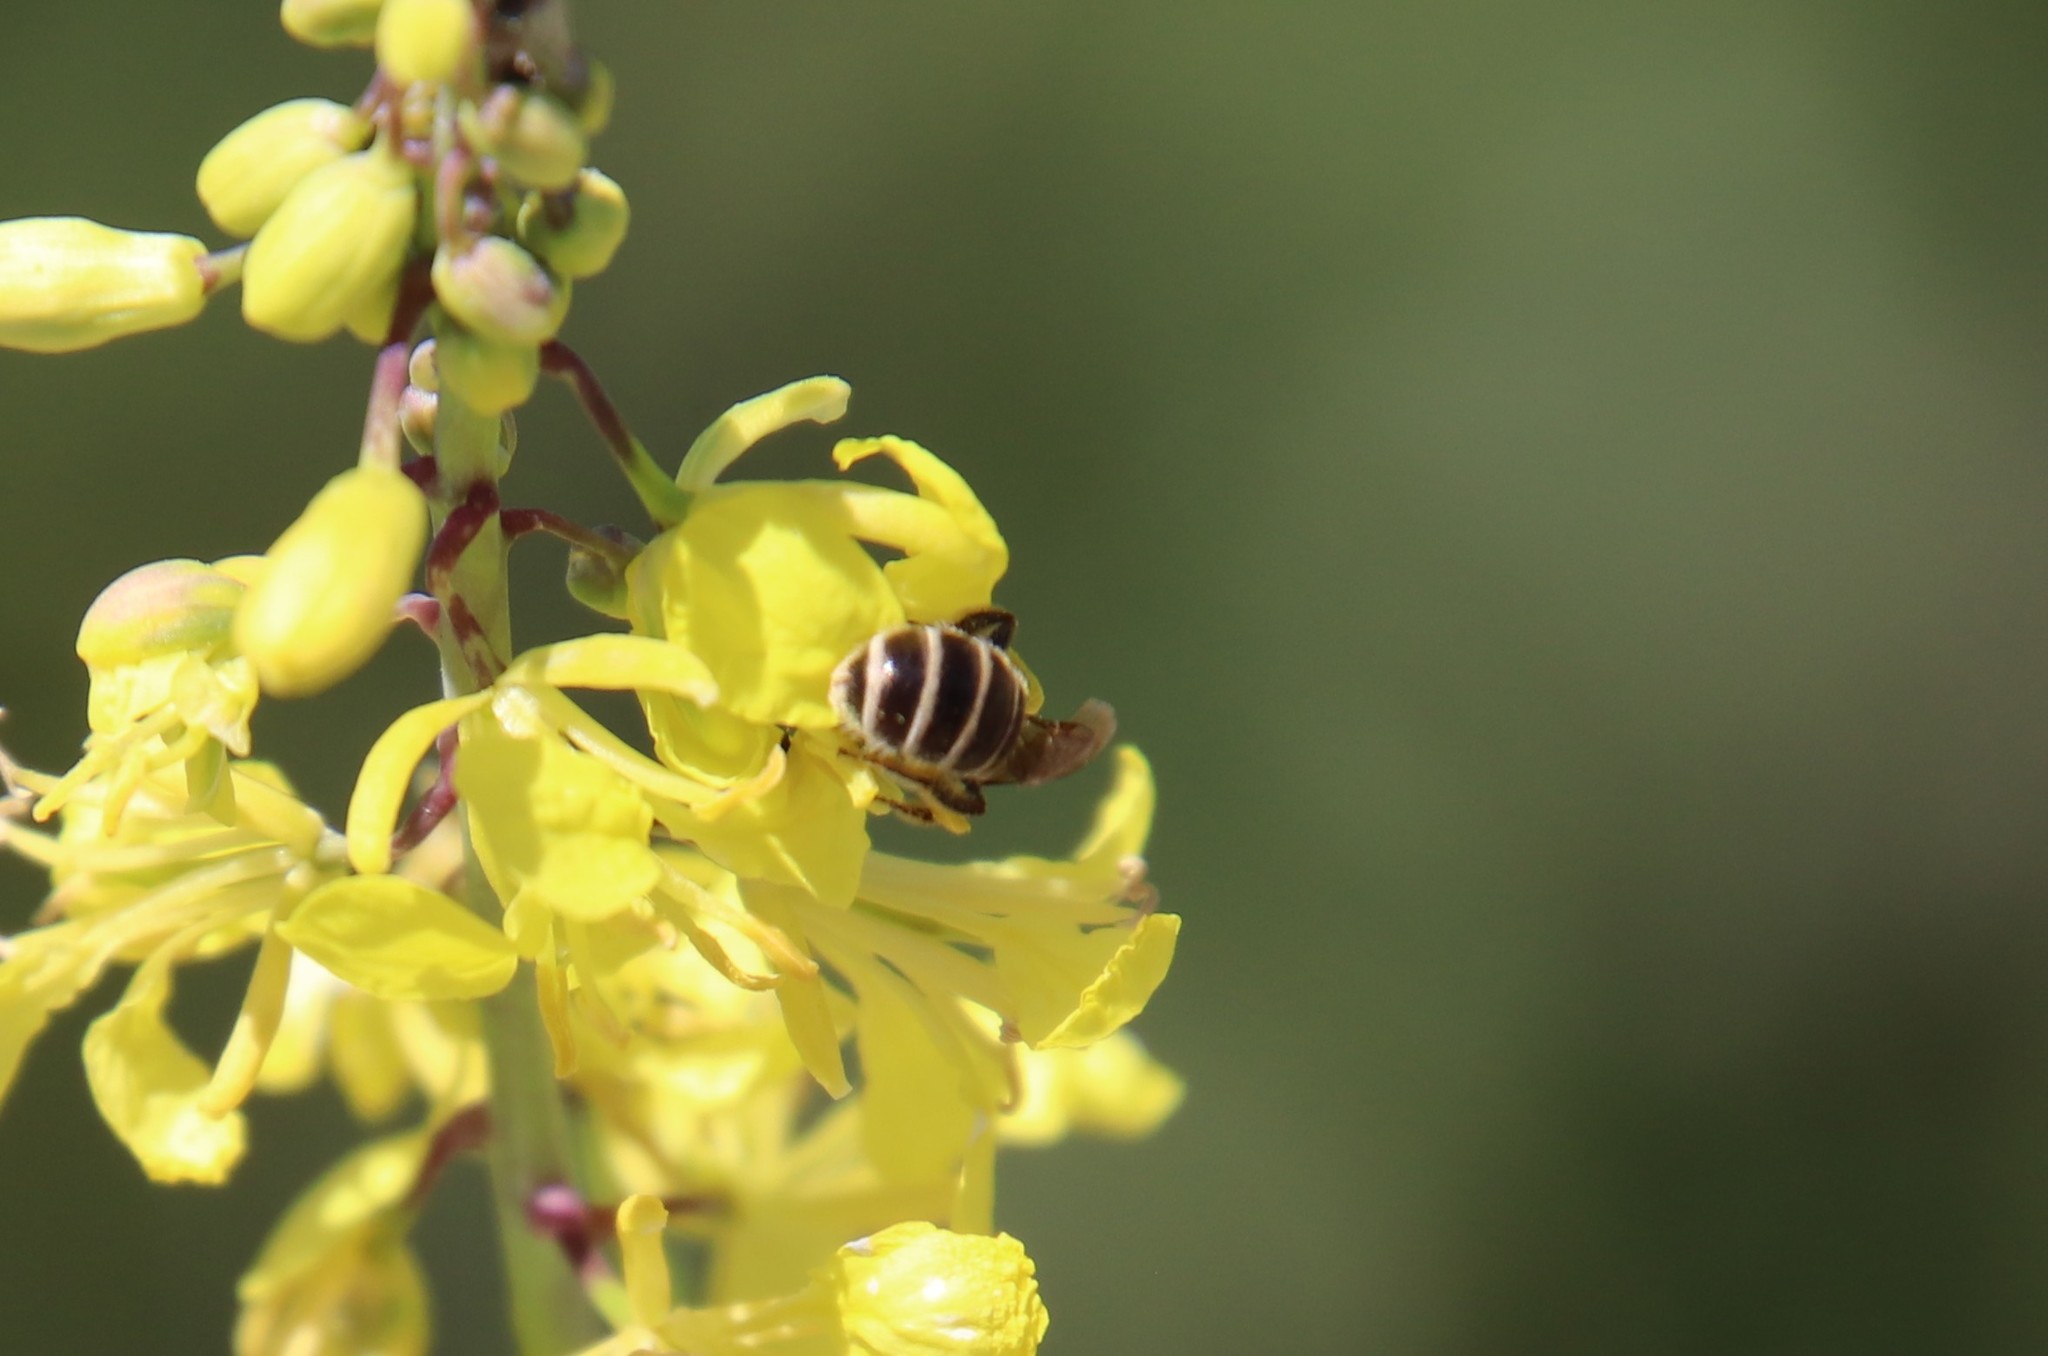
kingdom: Animalia
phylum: Arthropoda
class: Insecta
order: Hymenoptera
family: Halictidae
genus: Halictus
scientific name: Halictus tripartitus
